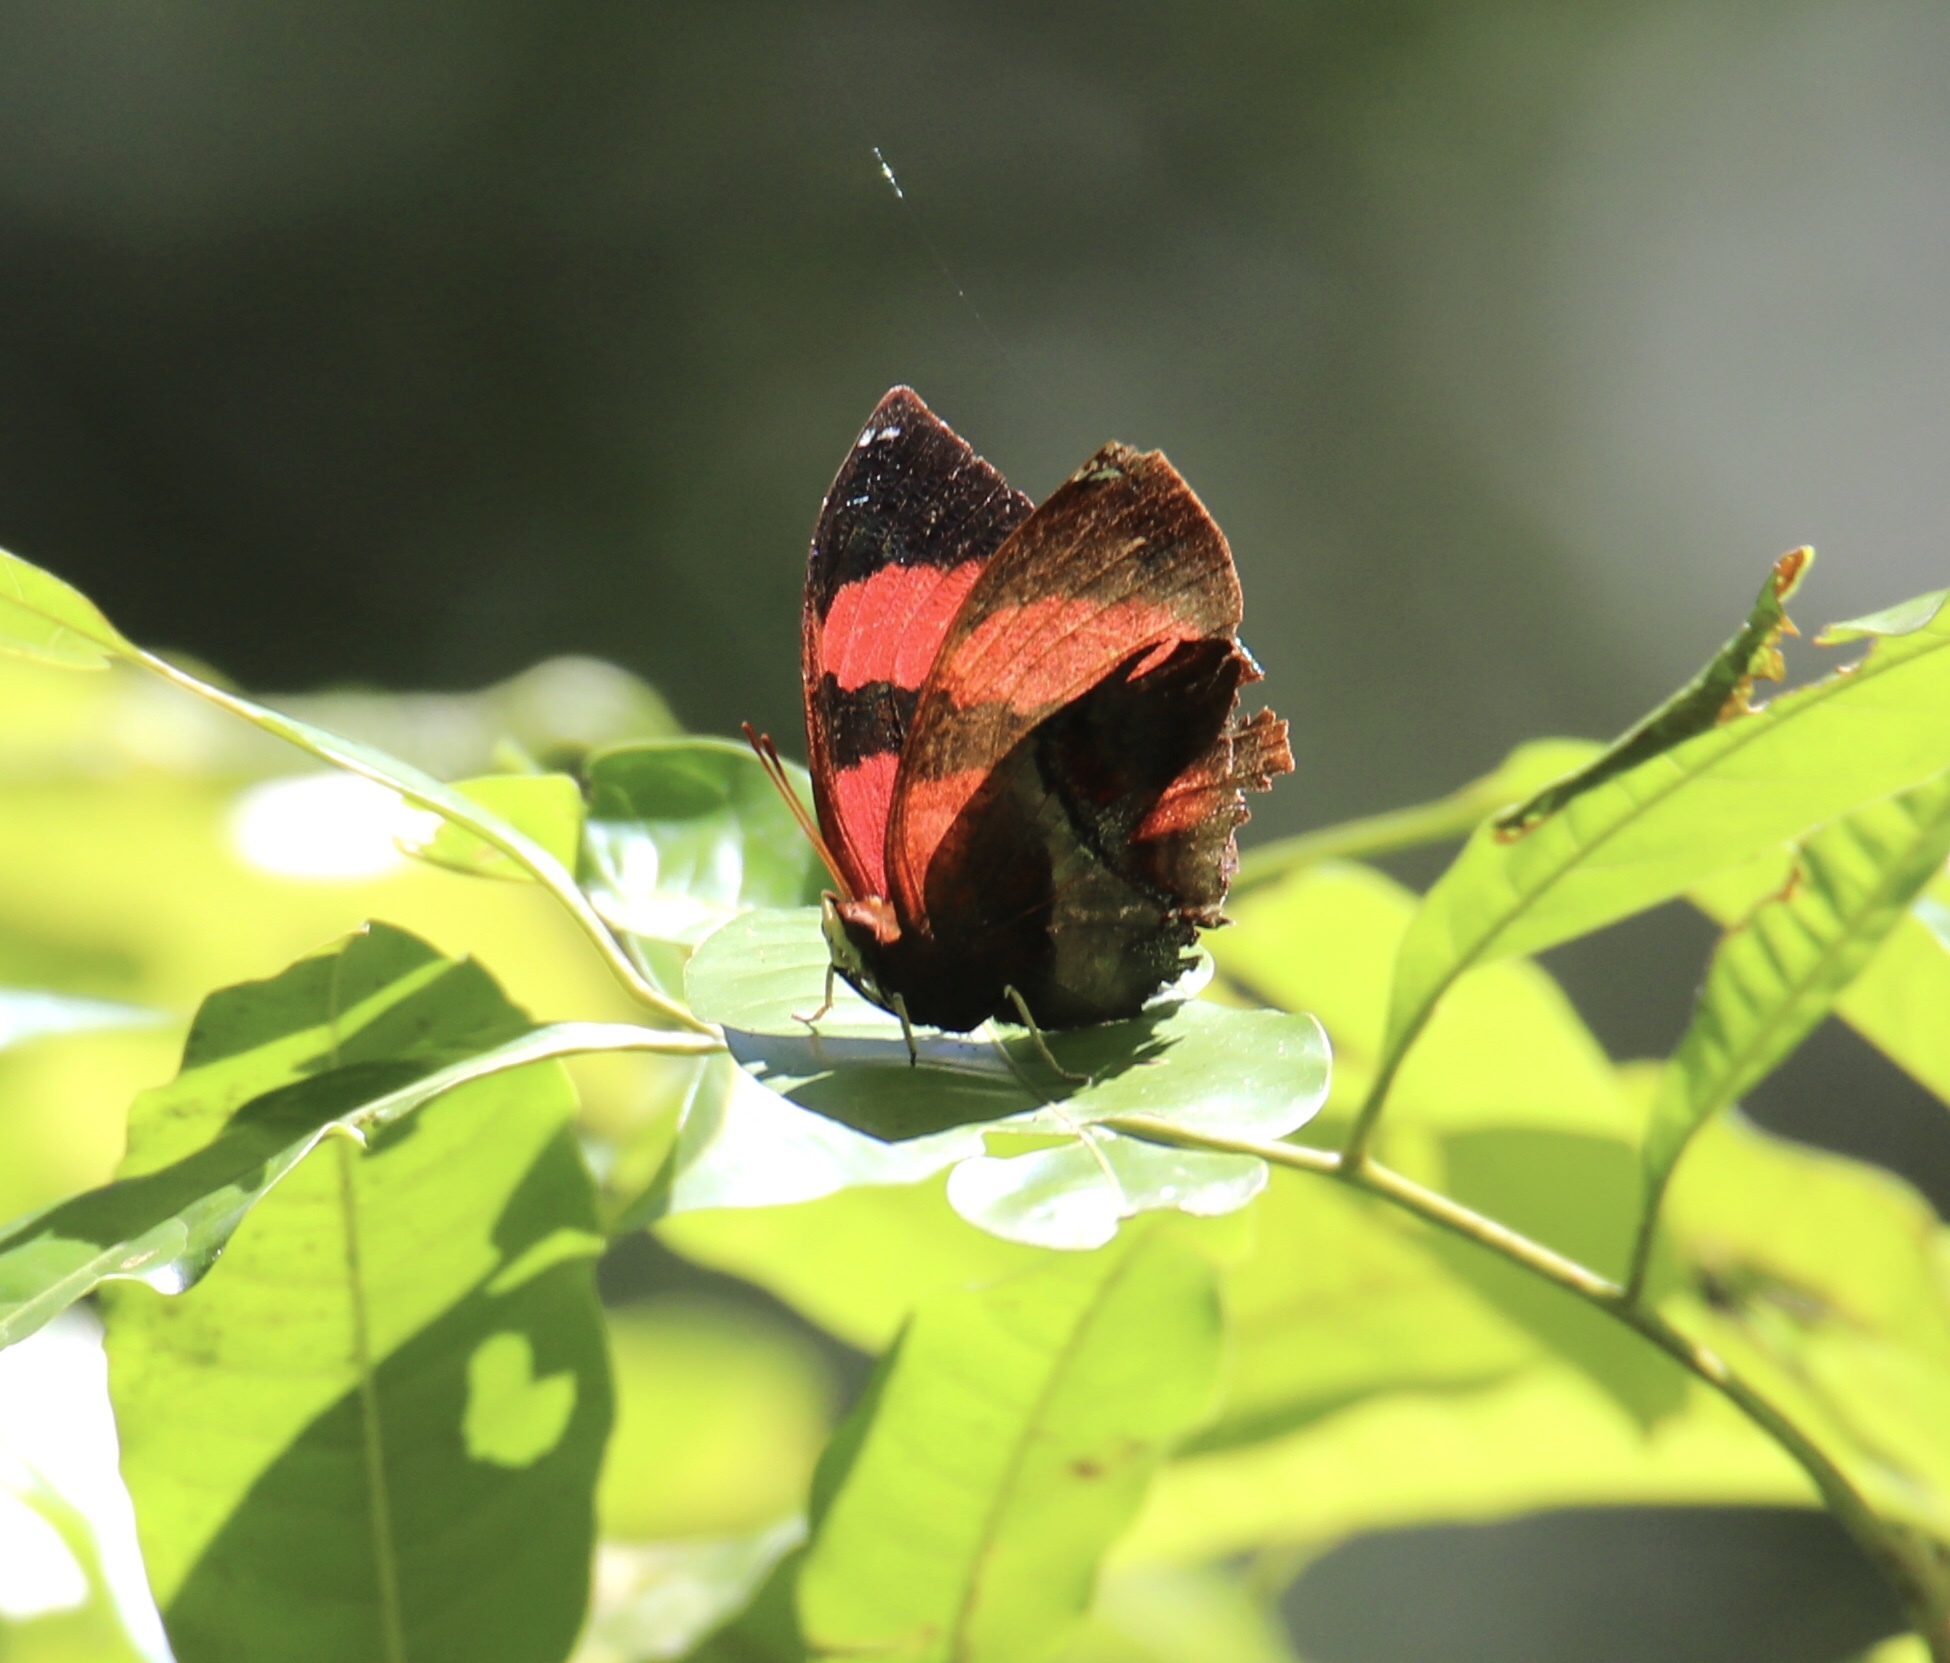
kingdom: Animalia
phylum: Arthropoda
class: Insecta
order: Lepidoptera
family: Nymphalidae
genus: Siderone
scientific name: Siderone galanthis
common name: Red-striped leafwing
